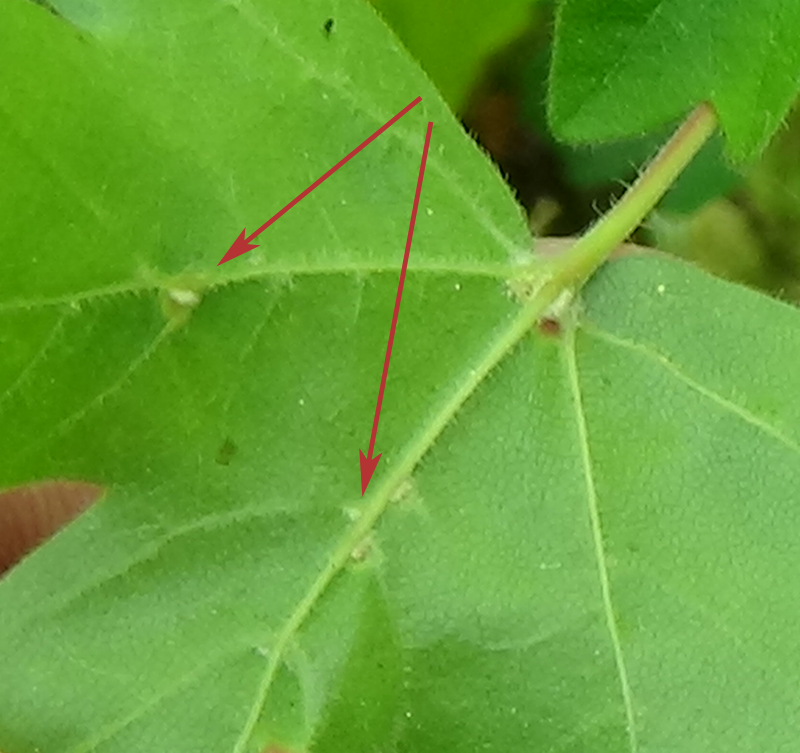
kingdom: Animalia
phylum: Arthropoda
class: Arachnida
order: Trombidiformes
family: Eriophyidae
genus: Aceria
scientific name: Aceria macrochelus
